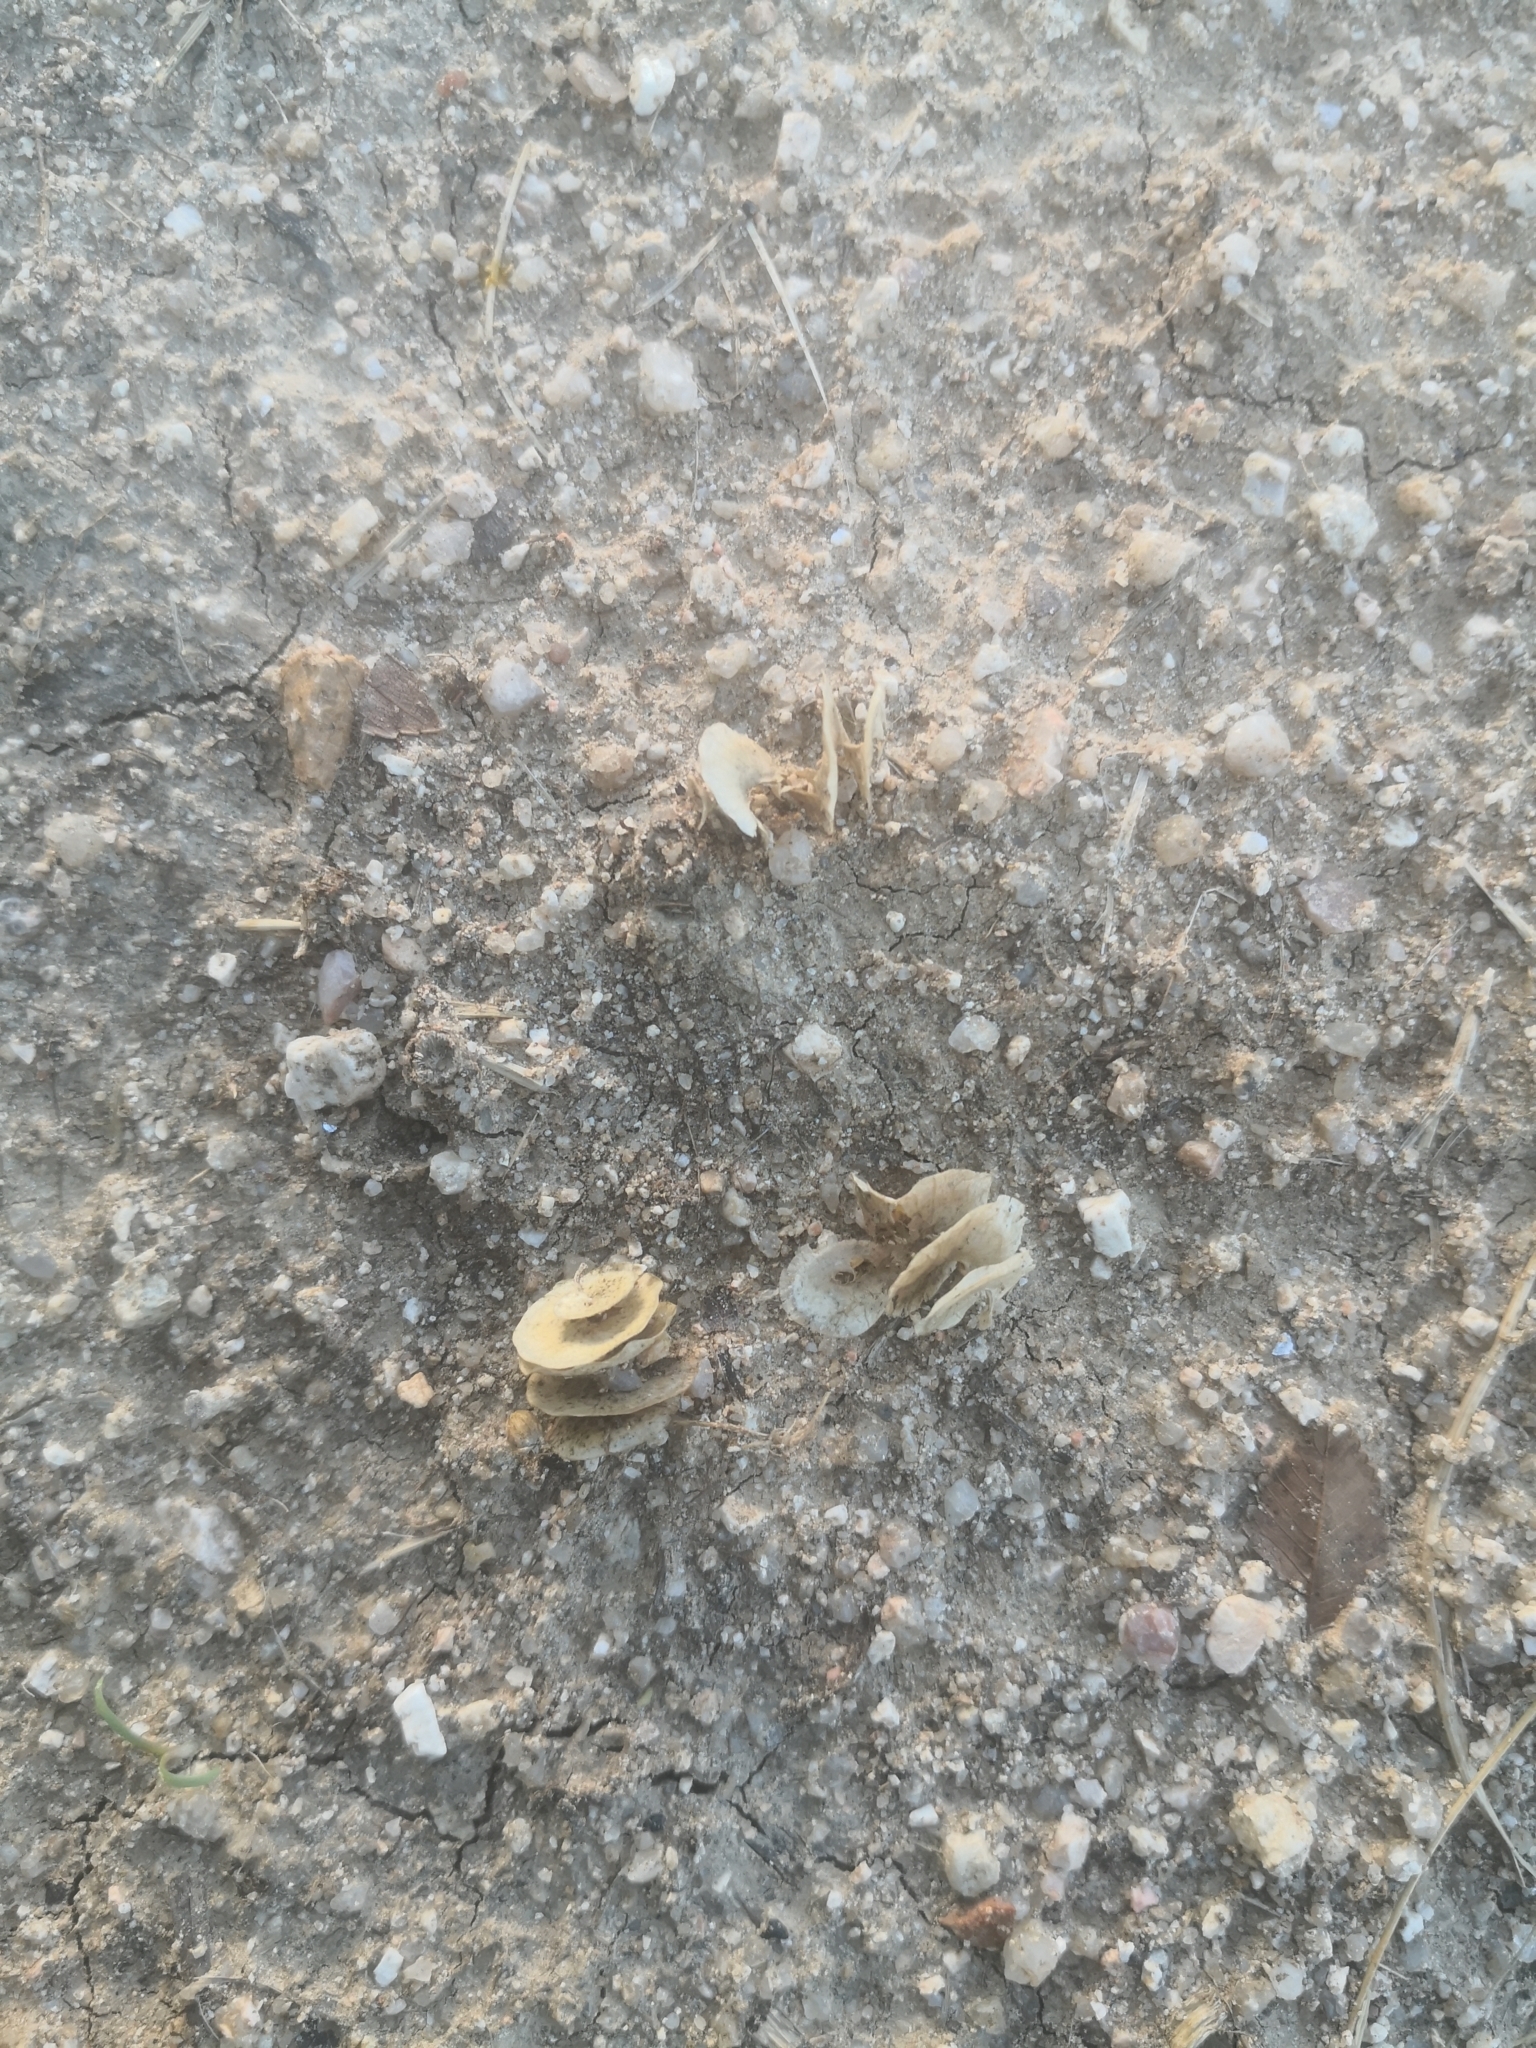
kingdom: Plantae
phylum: Tracheophyta
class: Magnoliopsida
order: Fabales
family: Fabaceae
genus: Medicago
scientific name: Medicago orbicularis
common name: Button medick
